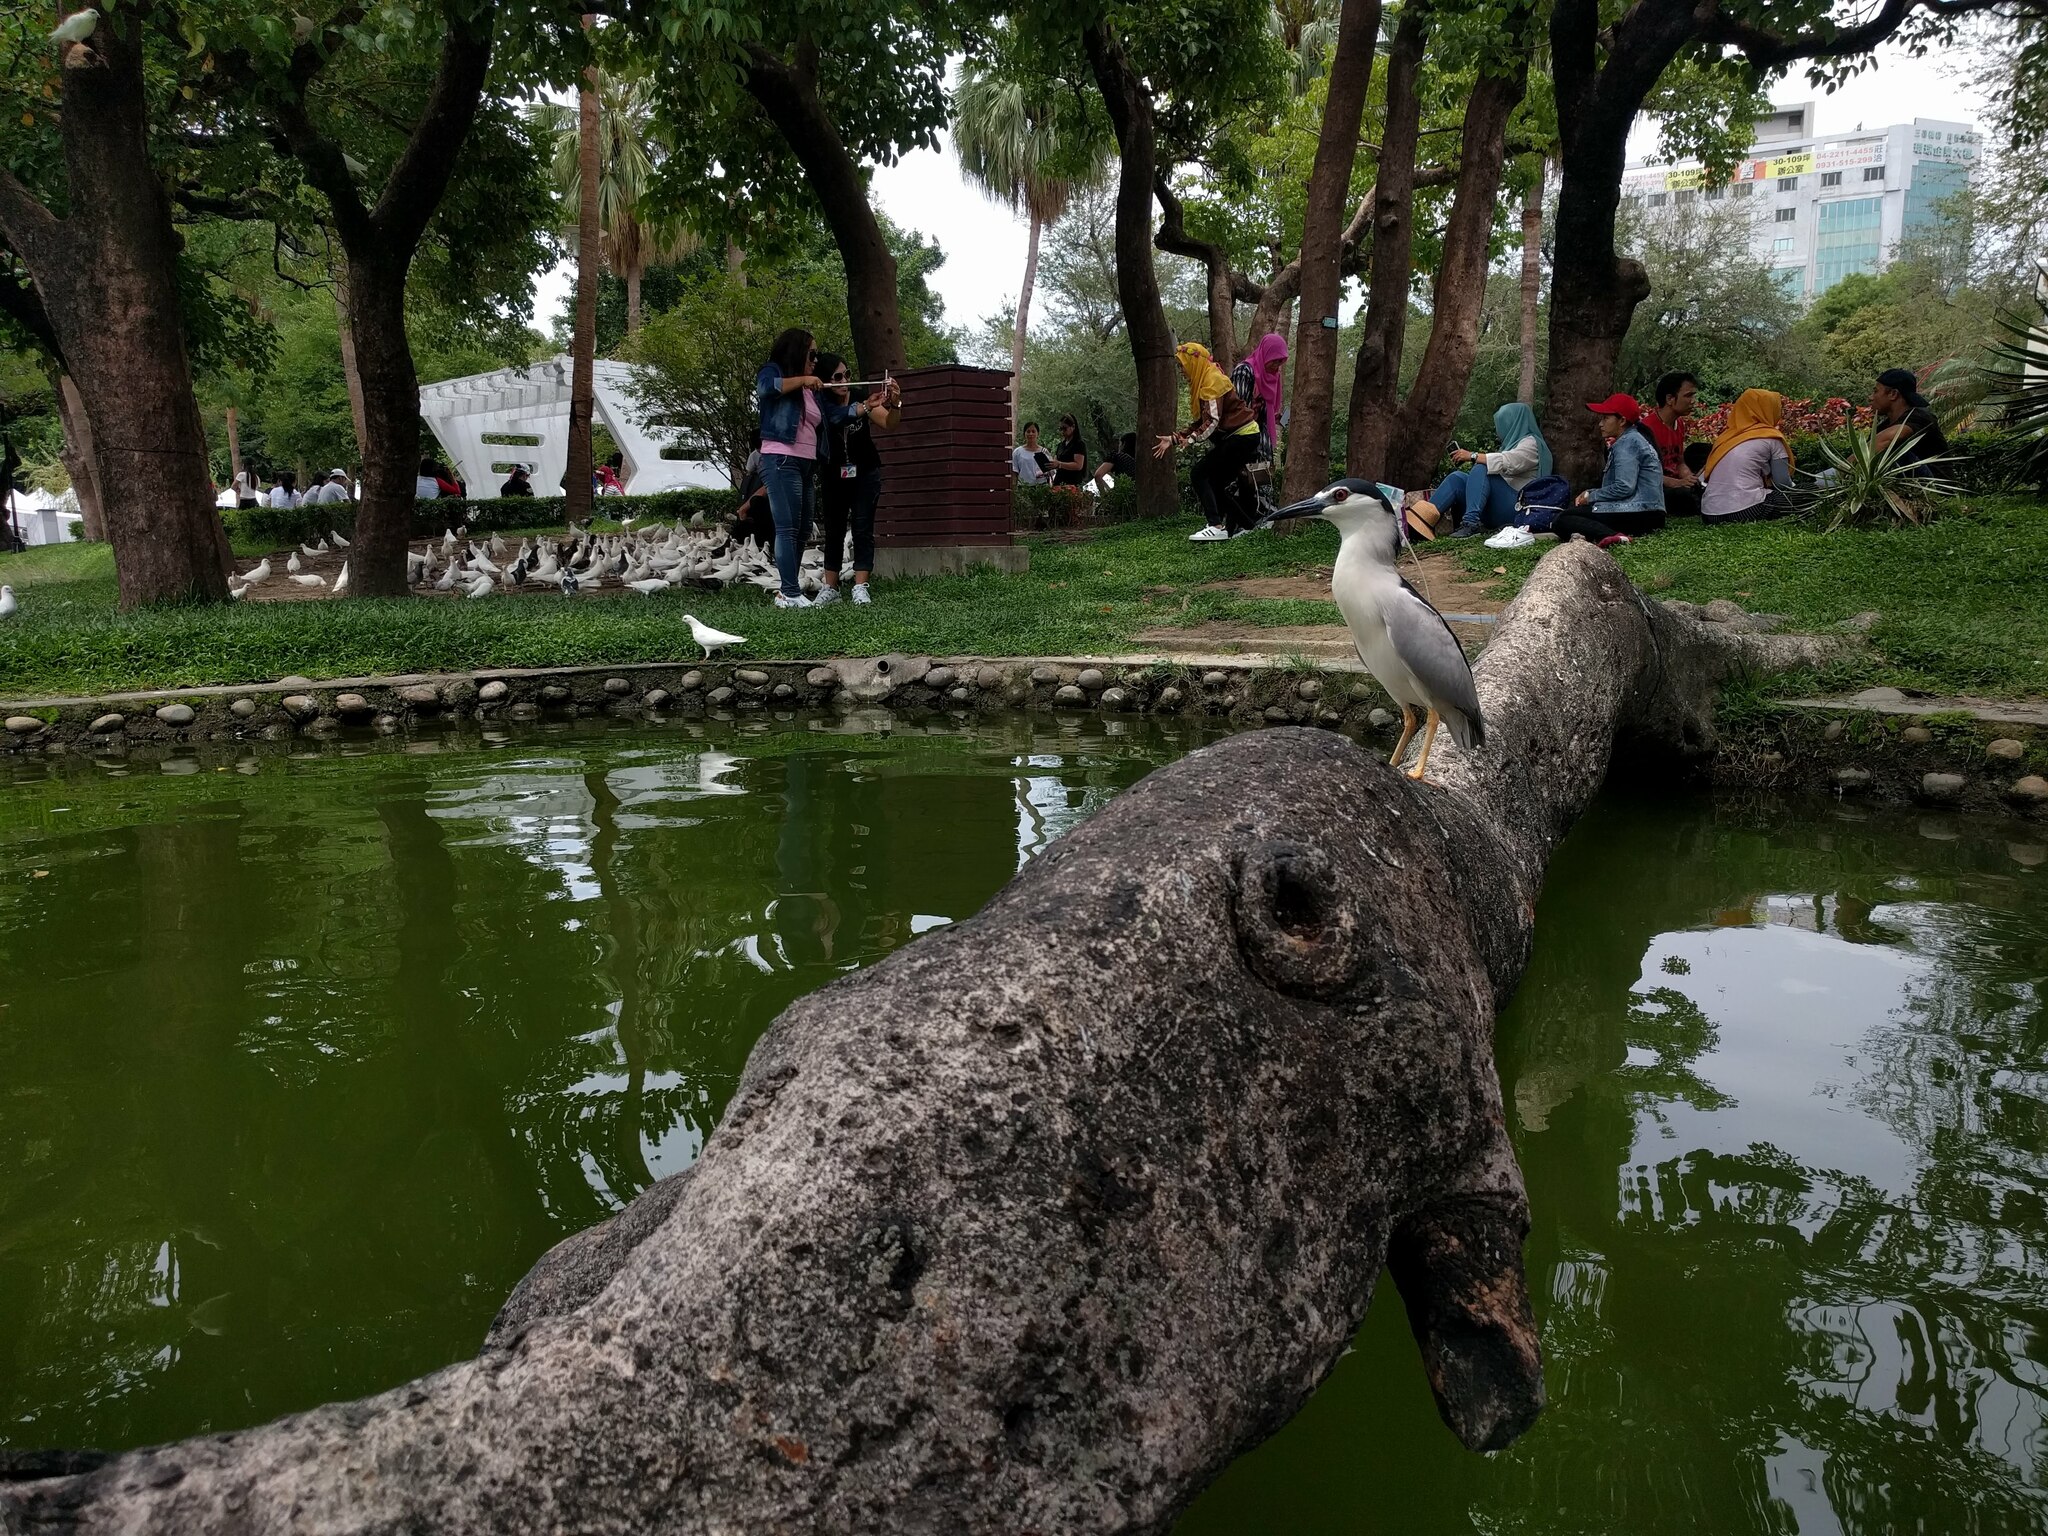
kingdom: Animalia
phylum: Chordata
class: Aves
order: Pelecaniformes
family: Ardeidae
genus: Nycticorax
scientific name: Nycticorax nycticorax
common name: Black-crowned night heron
